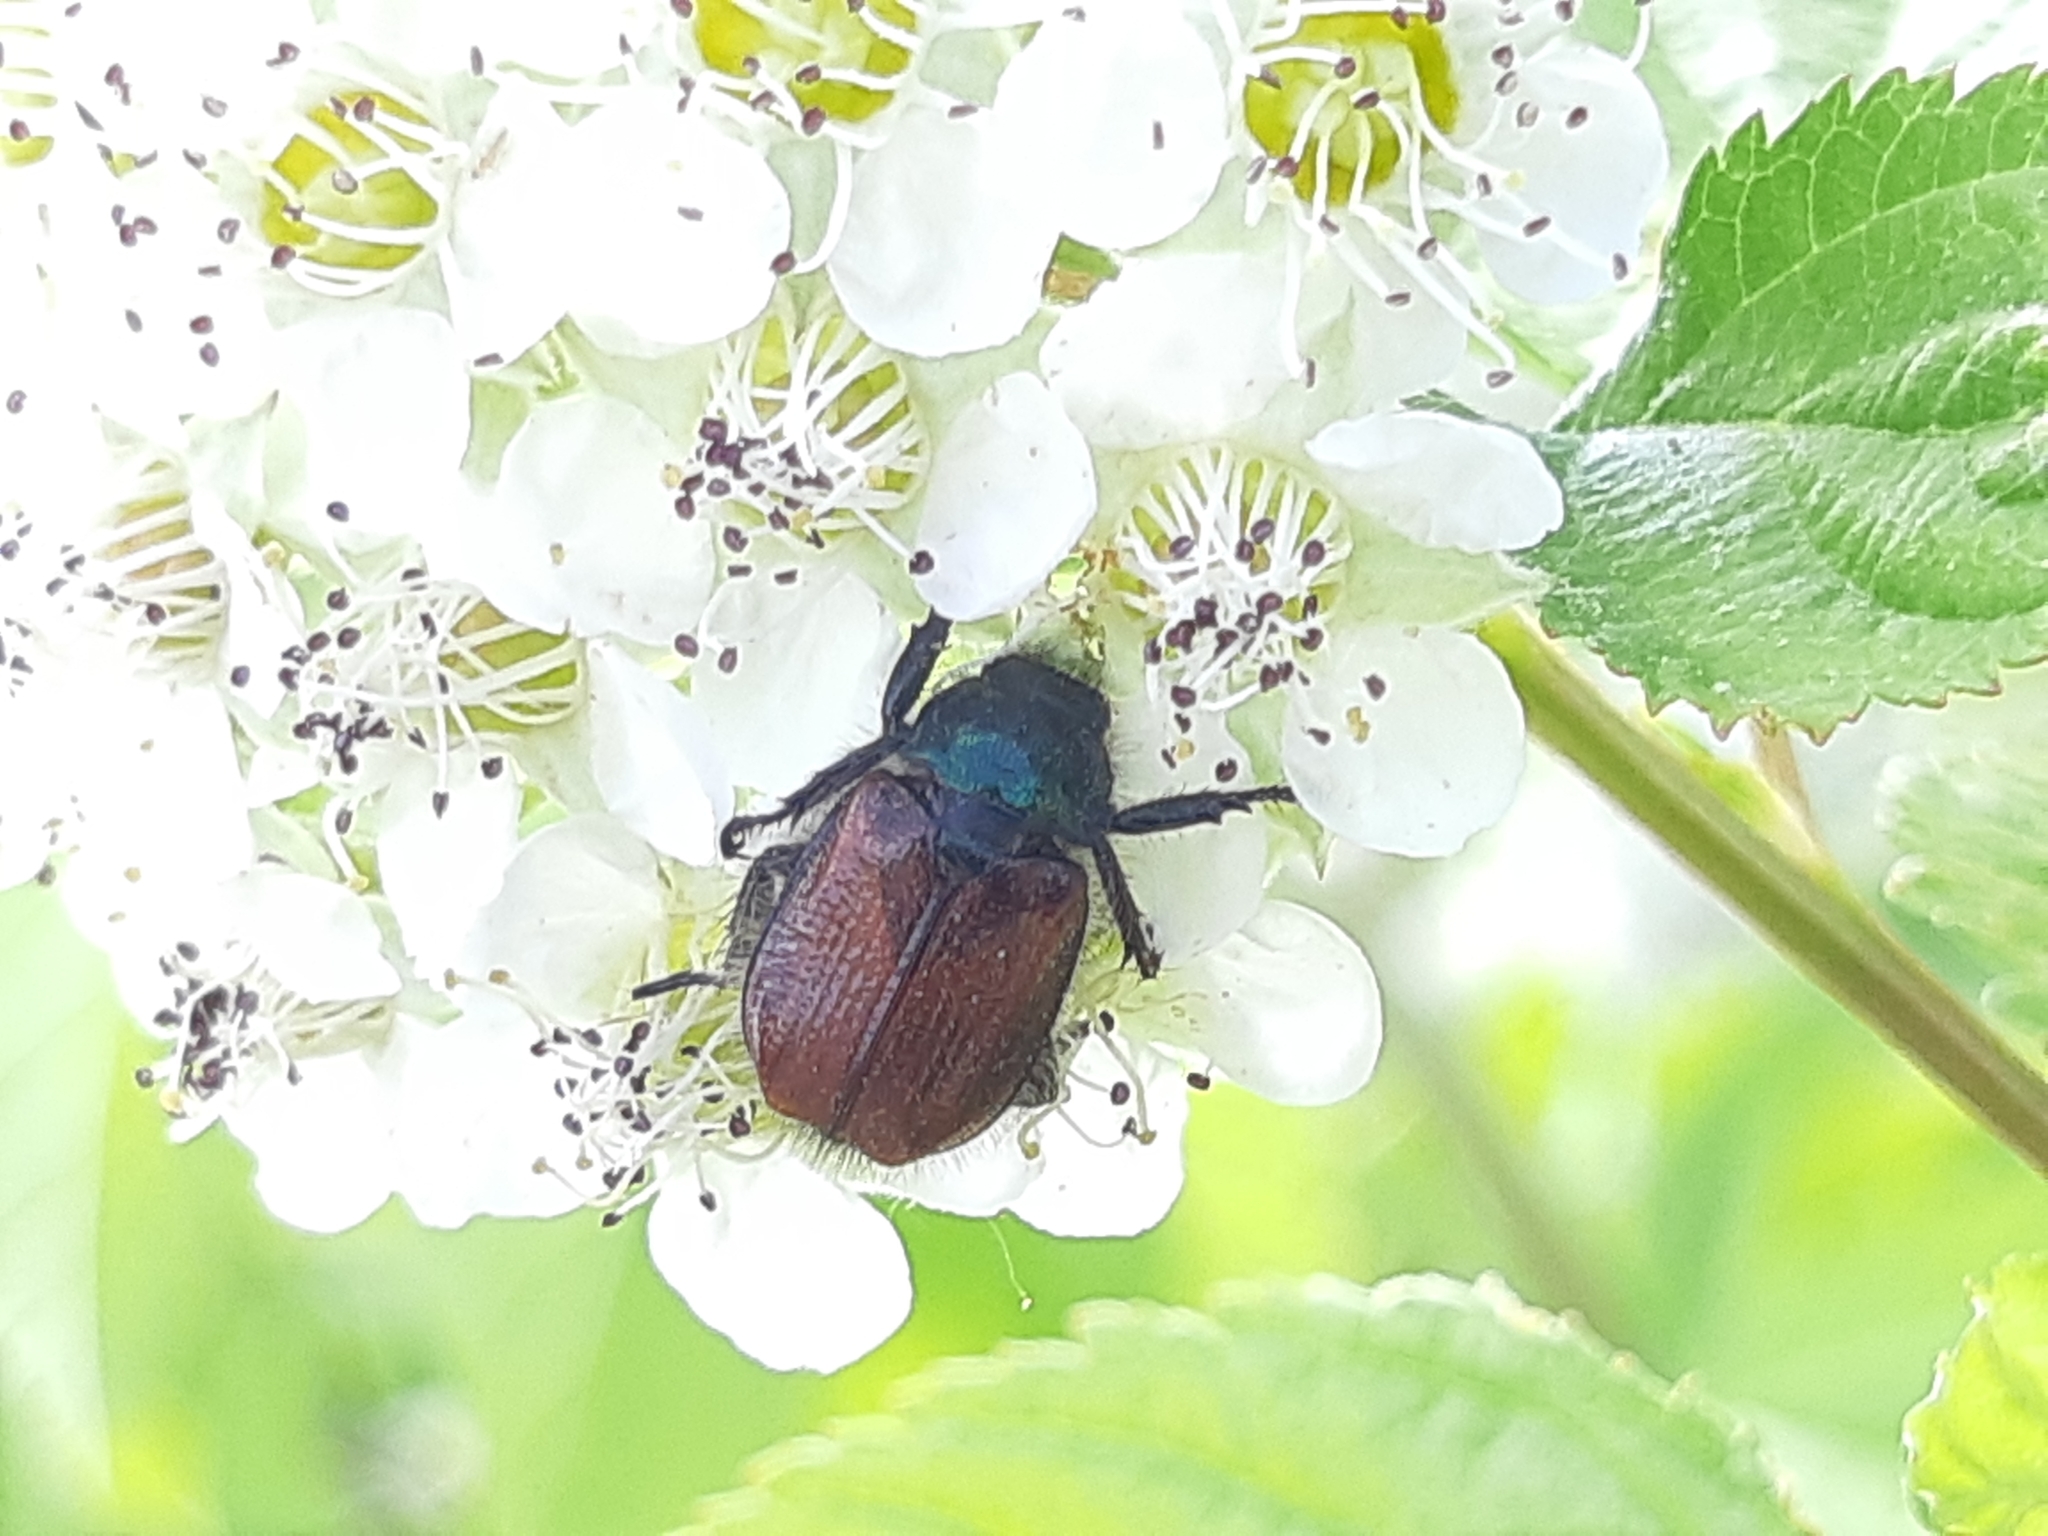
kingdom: Animalia
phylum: Arthropoda
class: Insecta
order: Coleoptera
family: Scarabaeidae
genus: Phyllopertha
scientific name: Phyllopertha horticola
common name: Garden chafer
